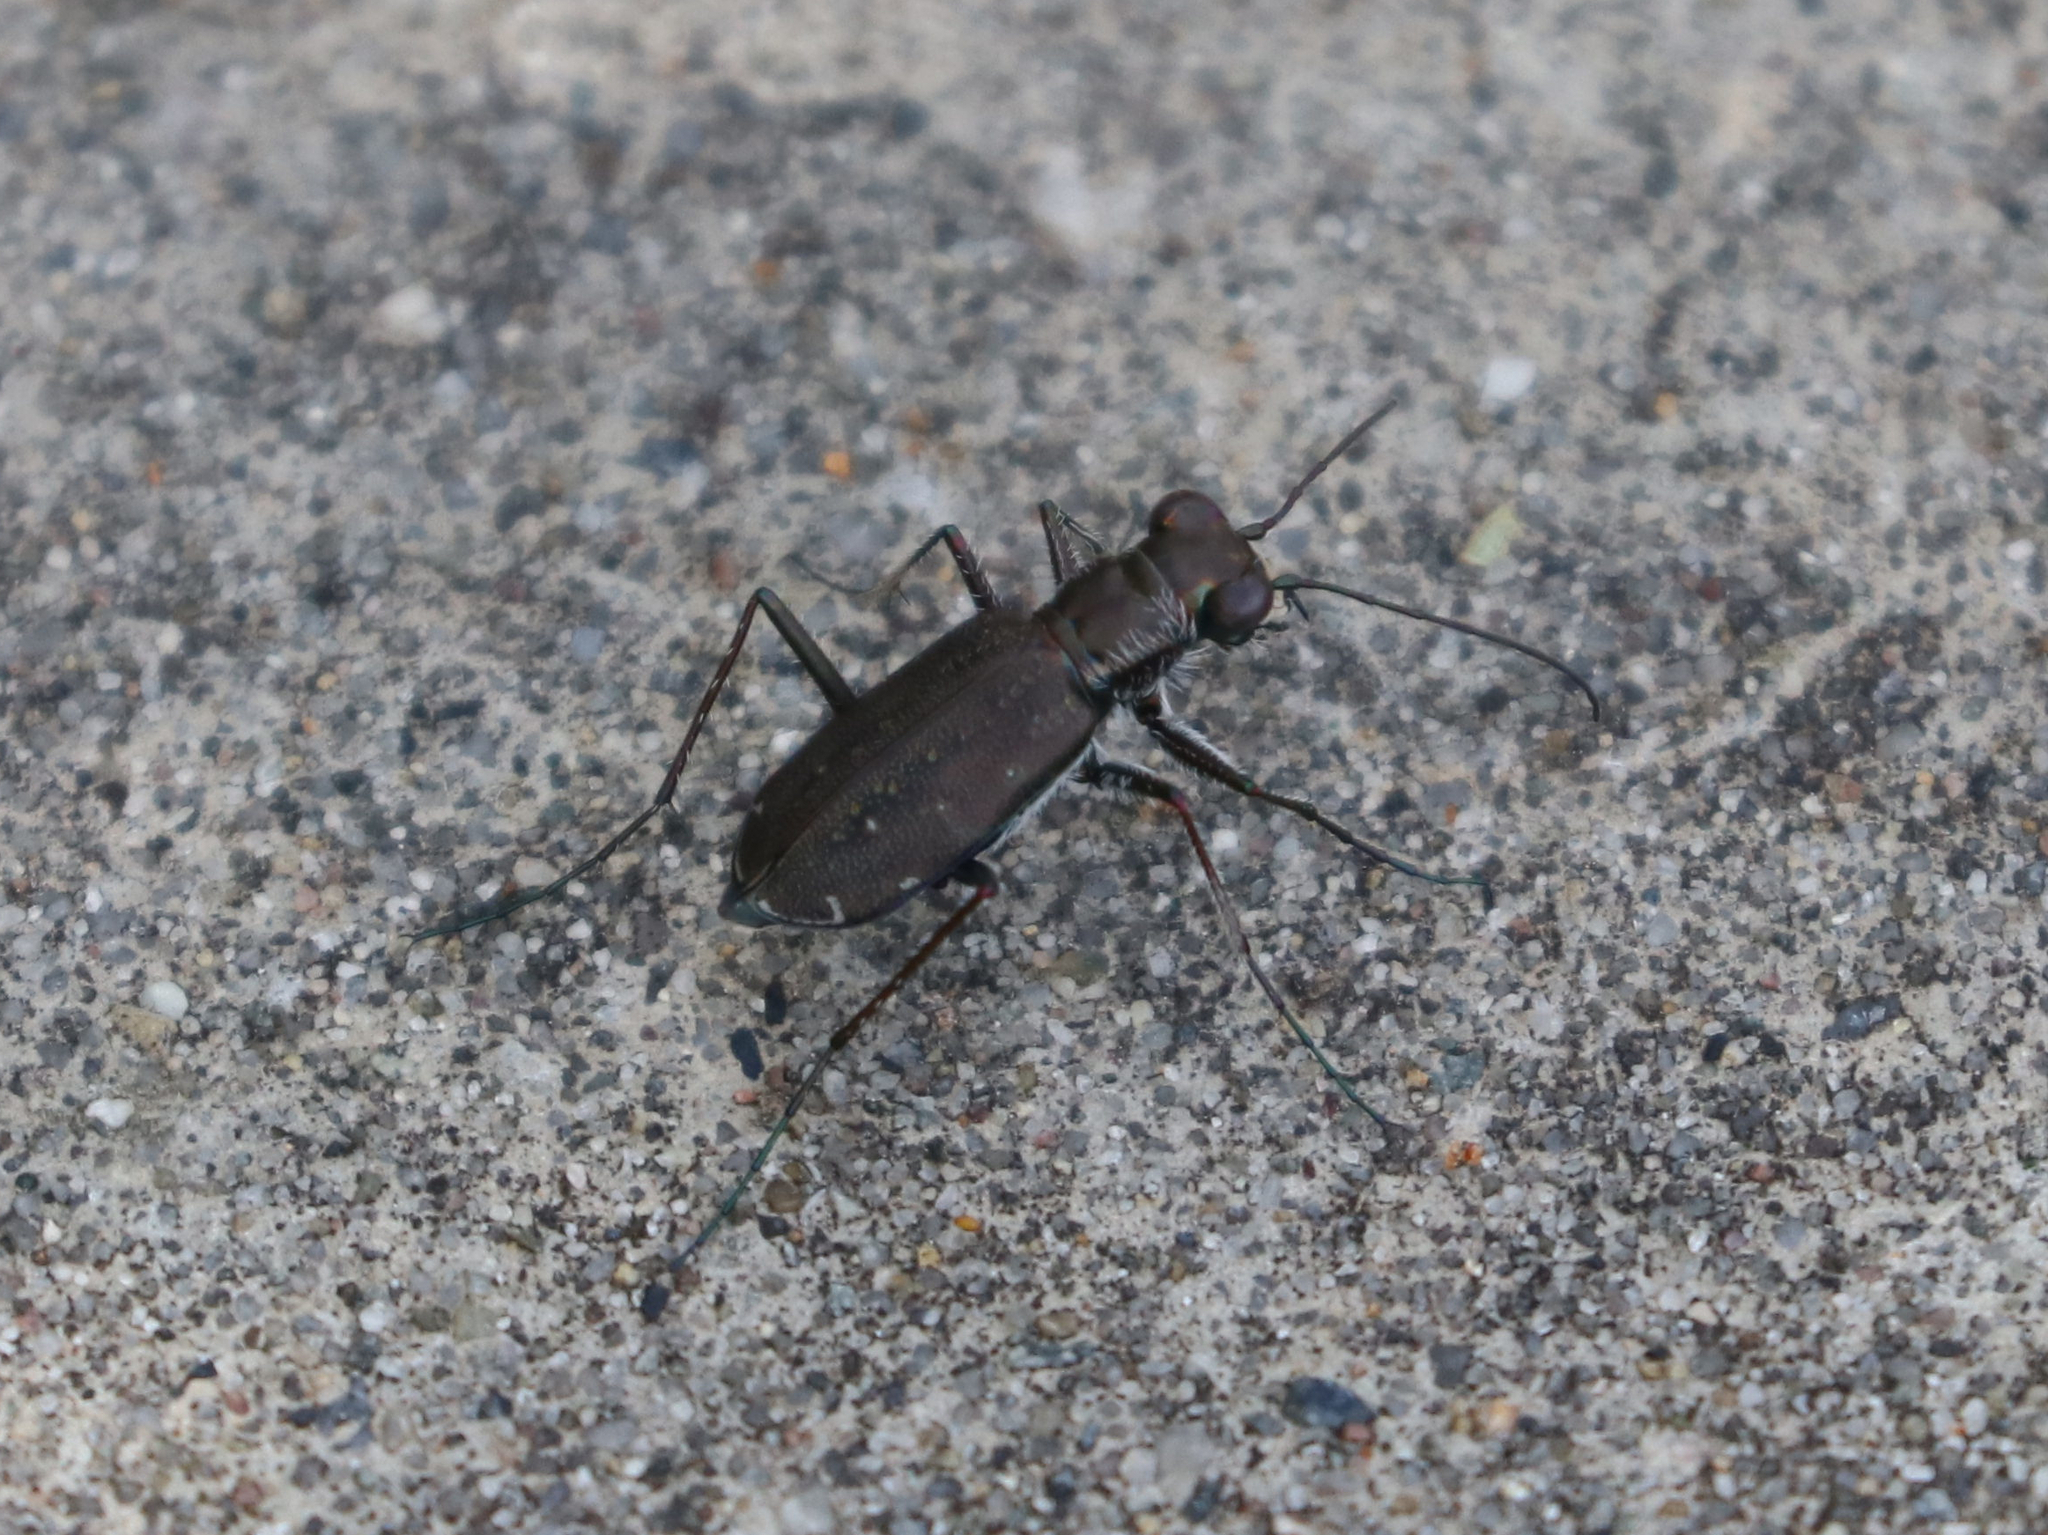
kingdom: Animalia
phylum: Arthropoda
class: Insecta
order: Coleoptera
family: Carabidae
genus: Cicindela
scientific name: Cicindela punctulata
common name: Punctured tiger beetle
